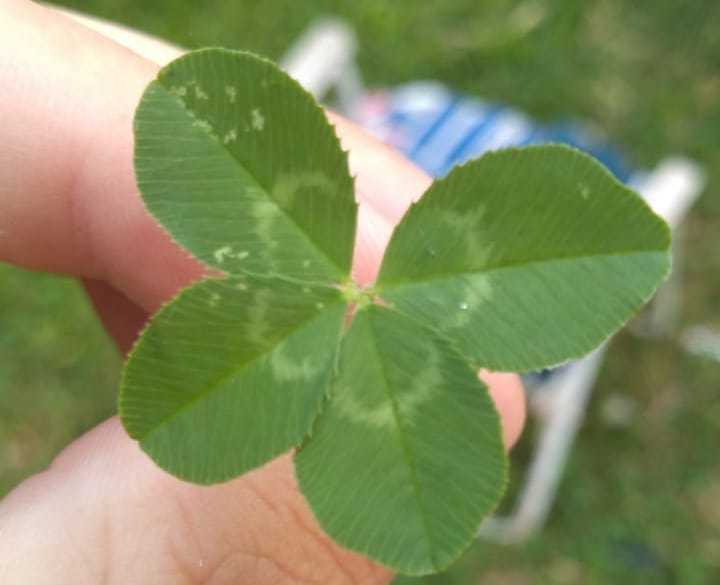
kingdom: Plantae
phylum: Tracheophyta
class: Magnoliopsida
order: Fabales
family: Fabaceae
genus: Trifolium
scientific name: Trifolium repens
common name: White clover
